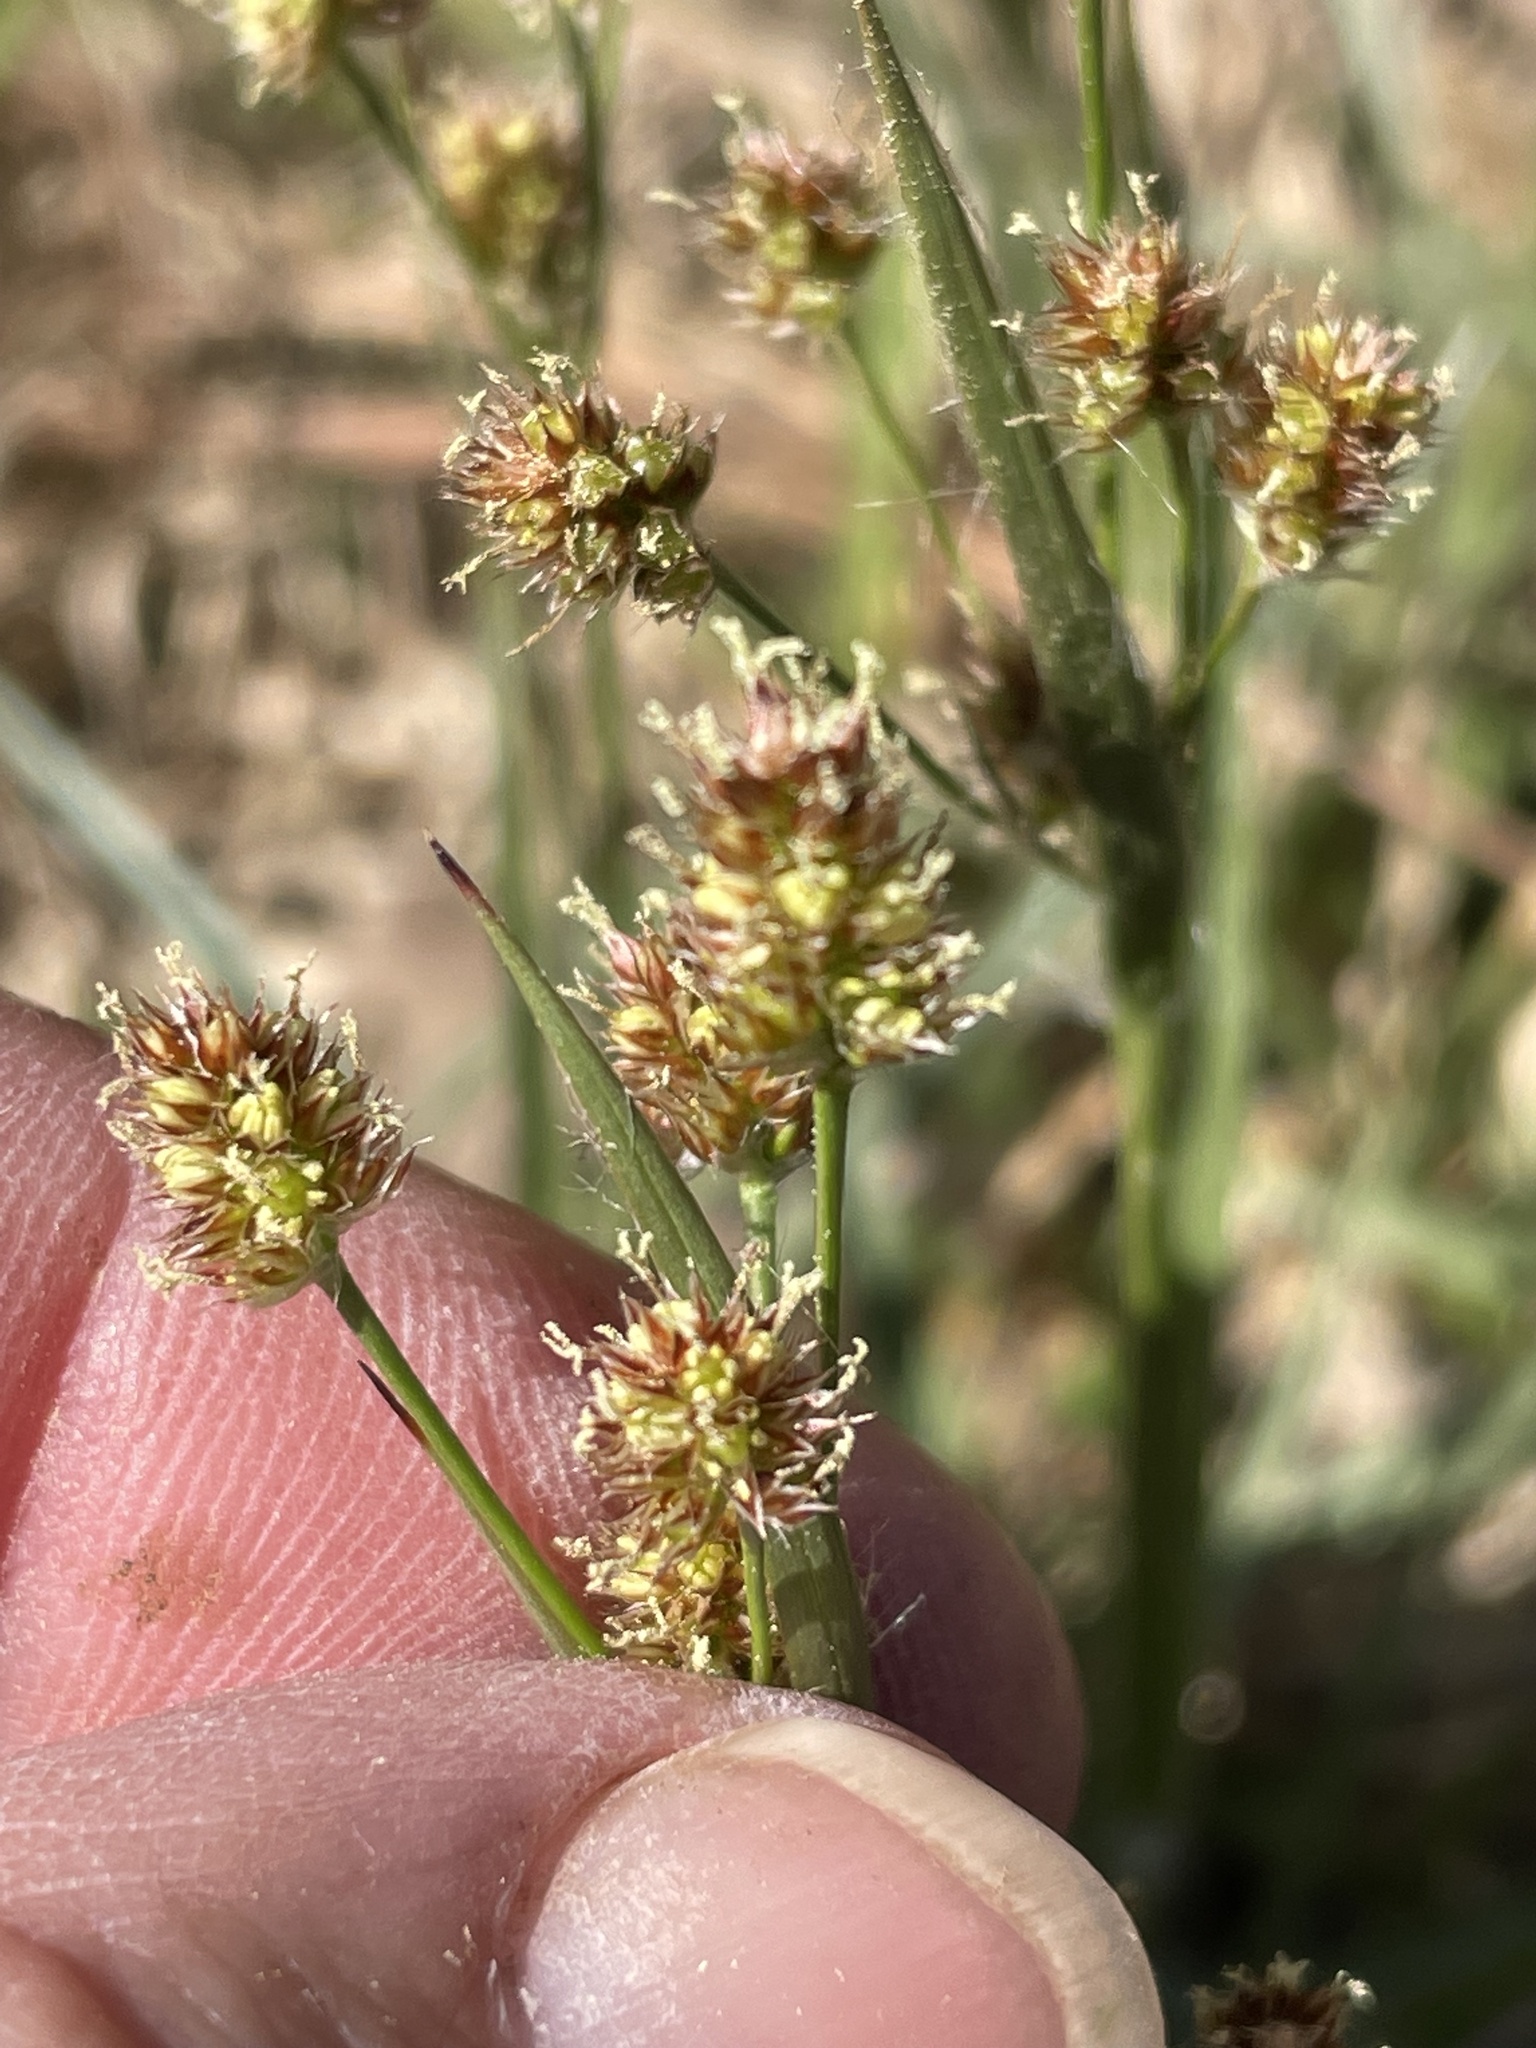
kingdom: Plantae
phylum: Tracheophyta
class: Liliopsida
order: Poales
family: Juncaceae
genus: Luzula
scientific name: Luzula echinata
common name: Hedgehog woodrush
